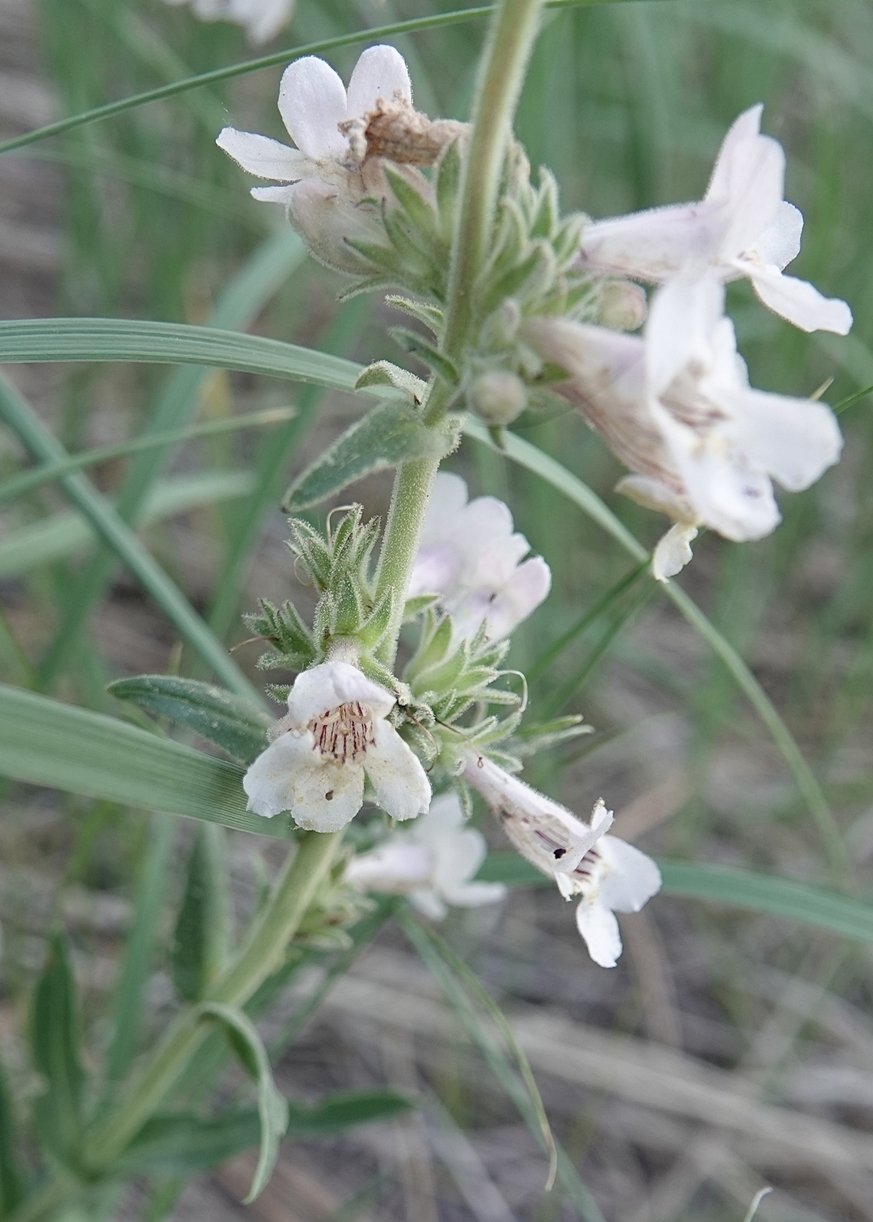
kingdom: Plantae
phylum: Tracheophyta
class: Magnoliopsida
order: Lamiales
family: Plantaginaceae
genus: Penstemon
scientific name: Penstemon albidus
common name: White beardtongue
